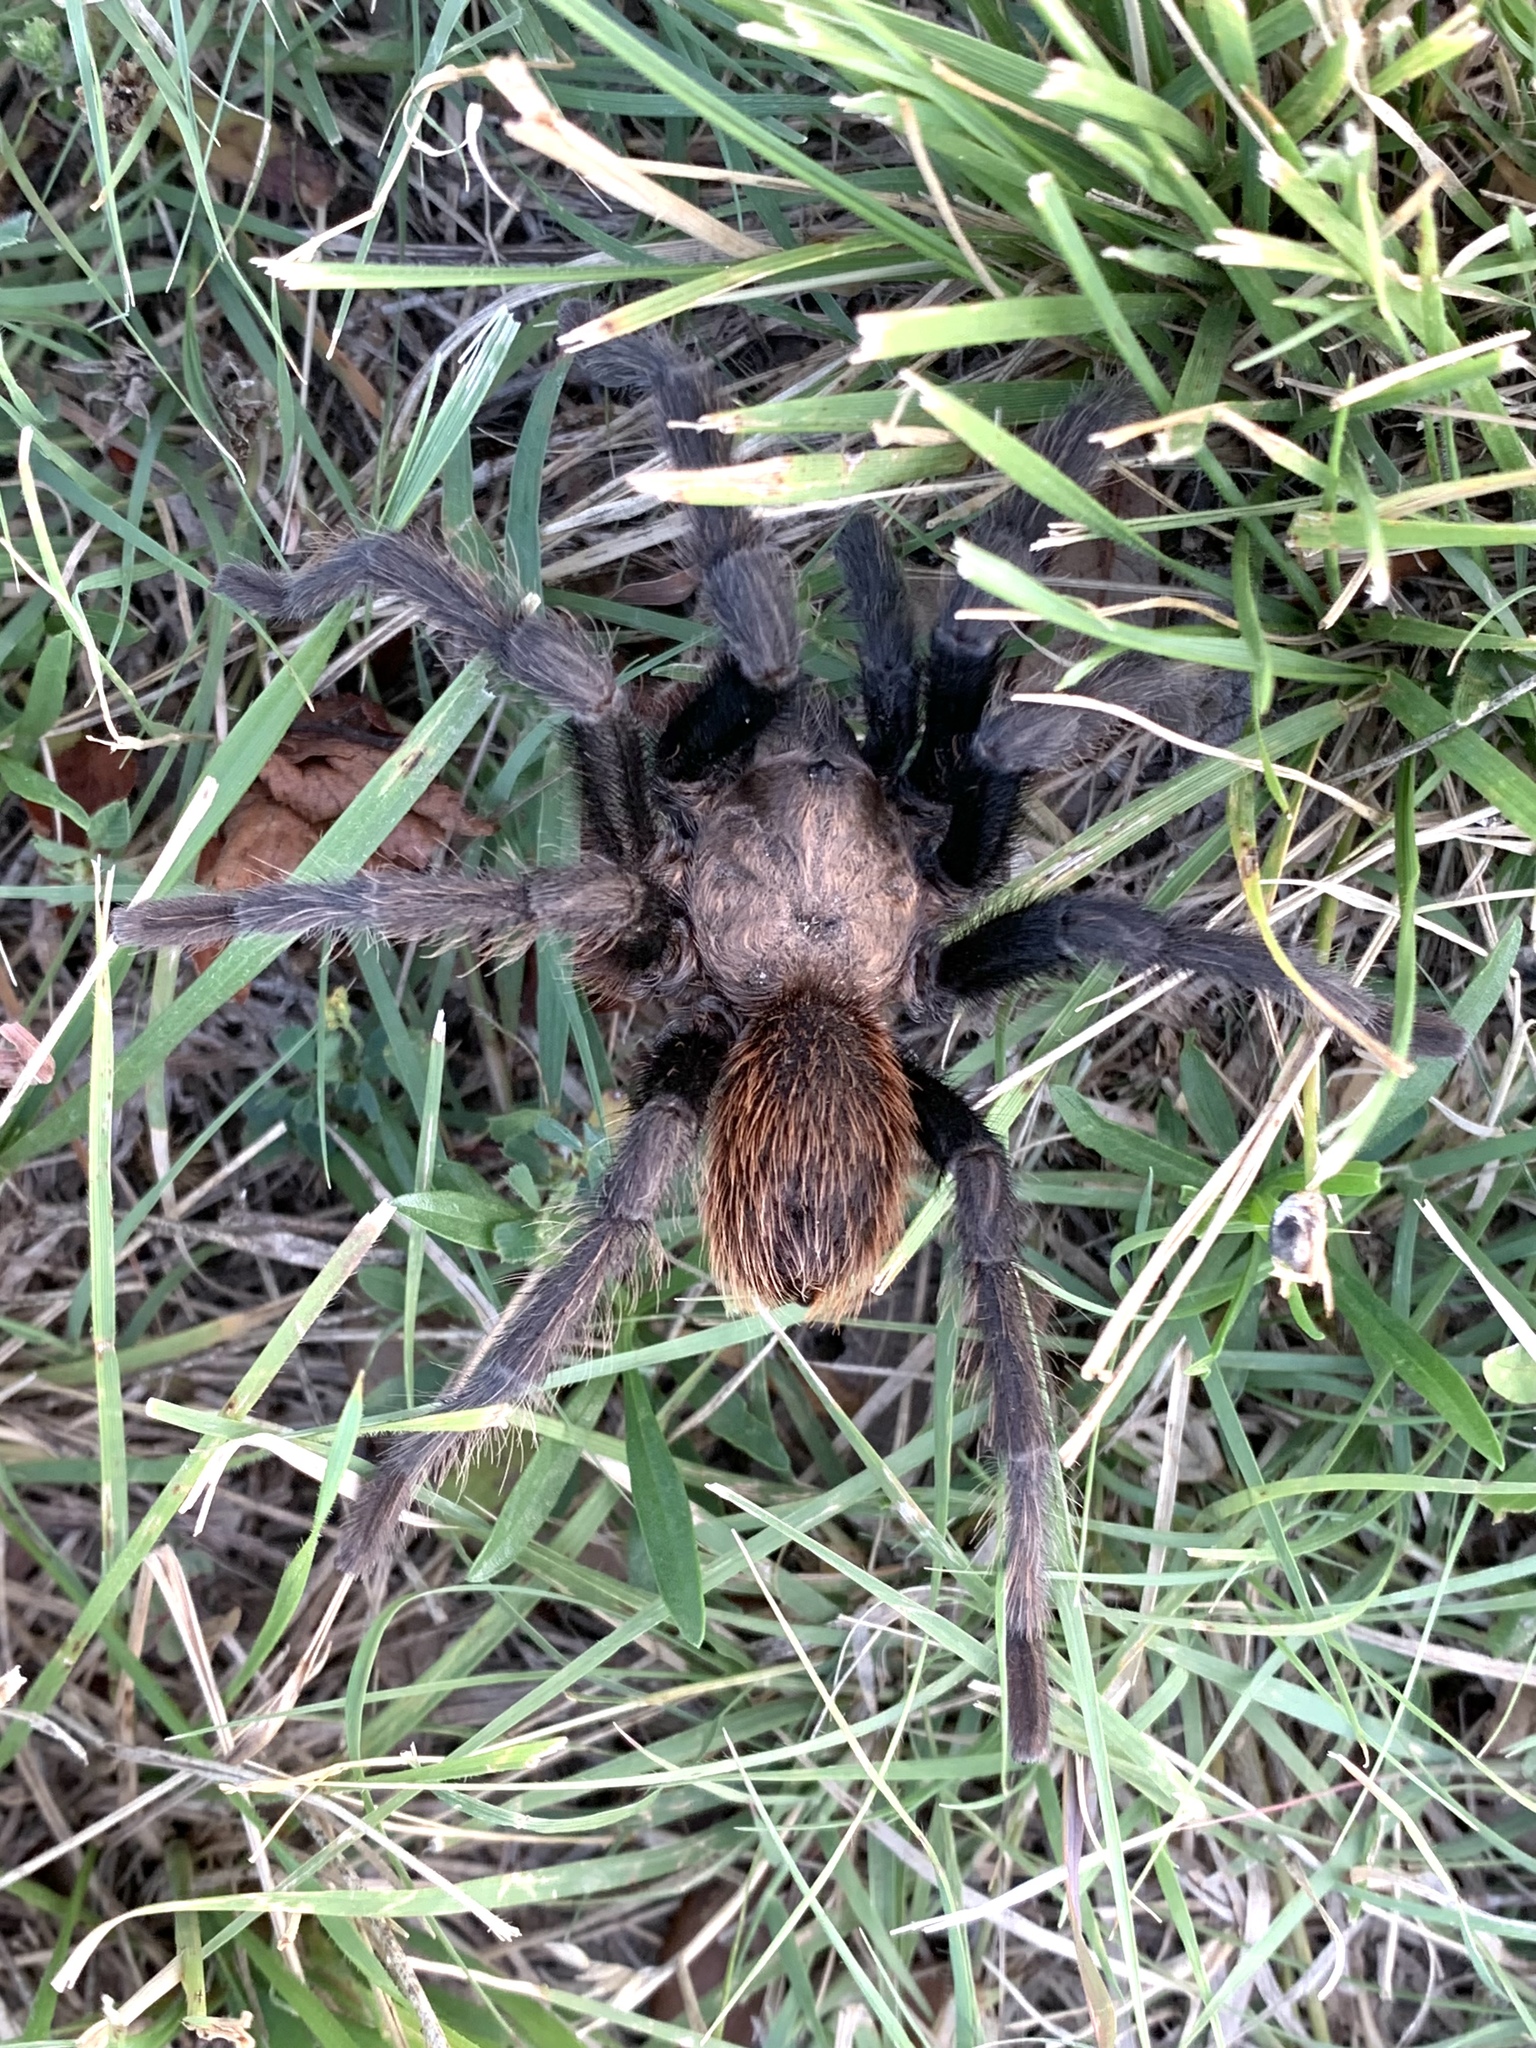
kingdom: Animalia
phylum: Arthropoda
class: Arachnida
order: Araneae
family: Theraphosidae
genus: Aphonopelma
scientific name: Aphonopelma hentzi
